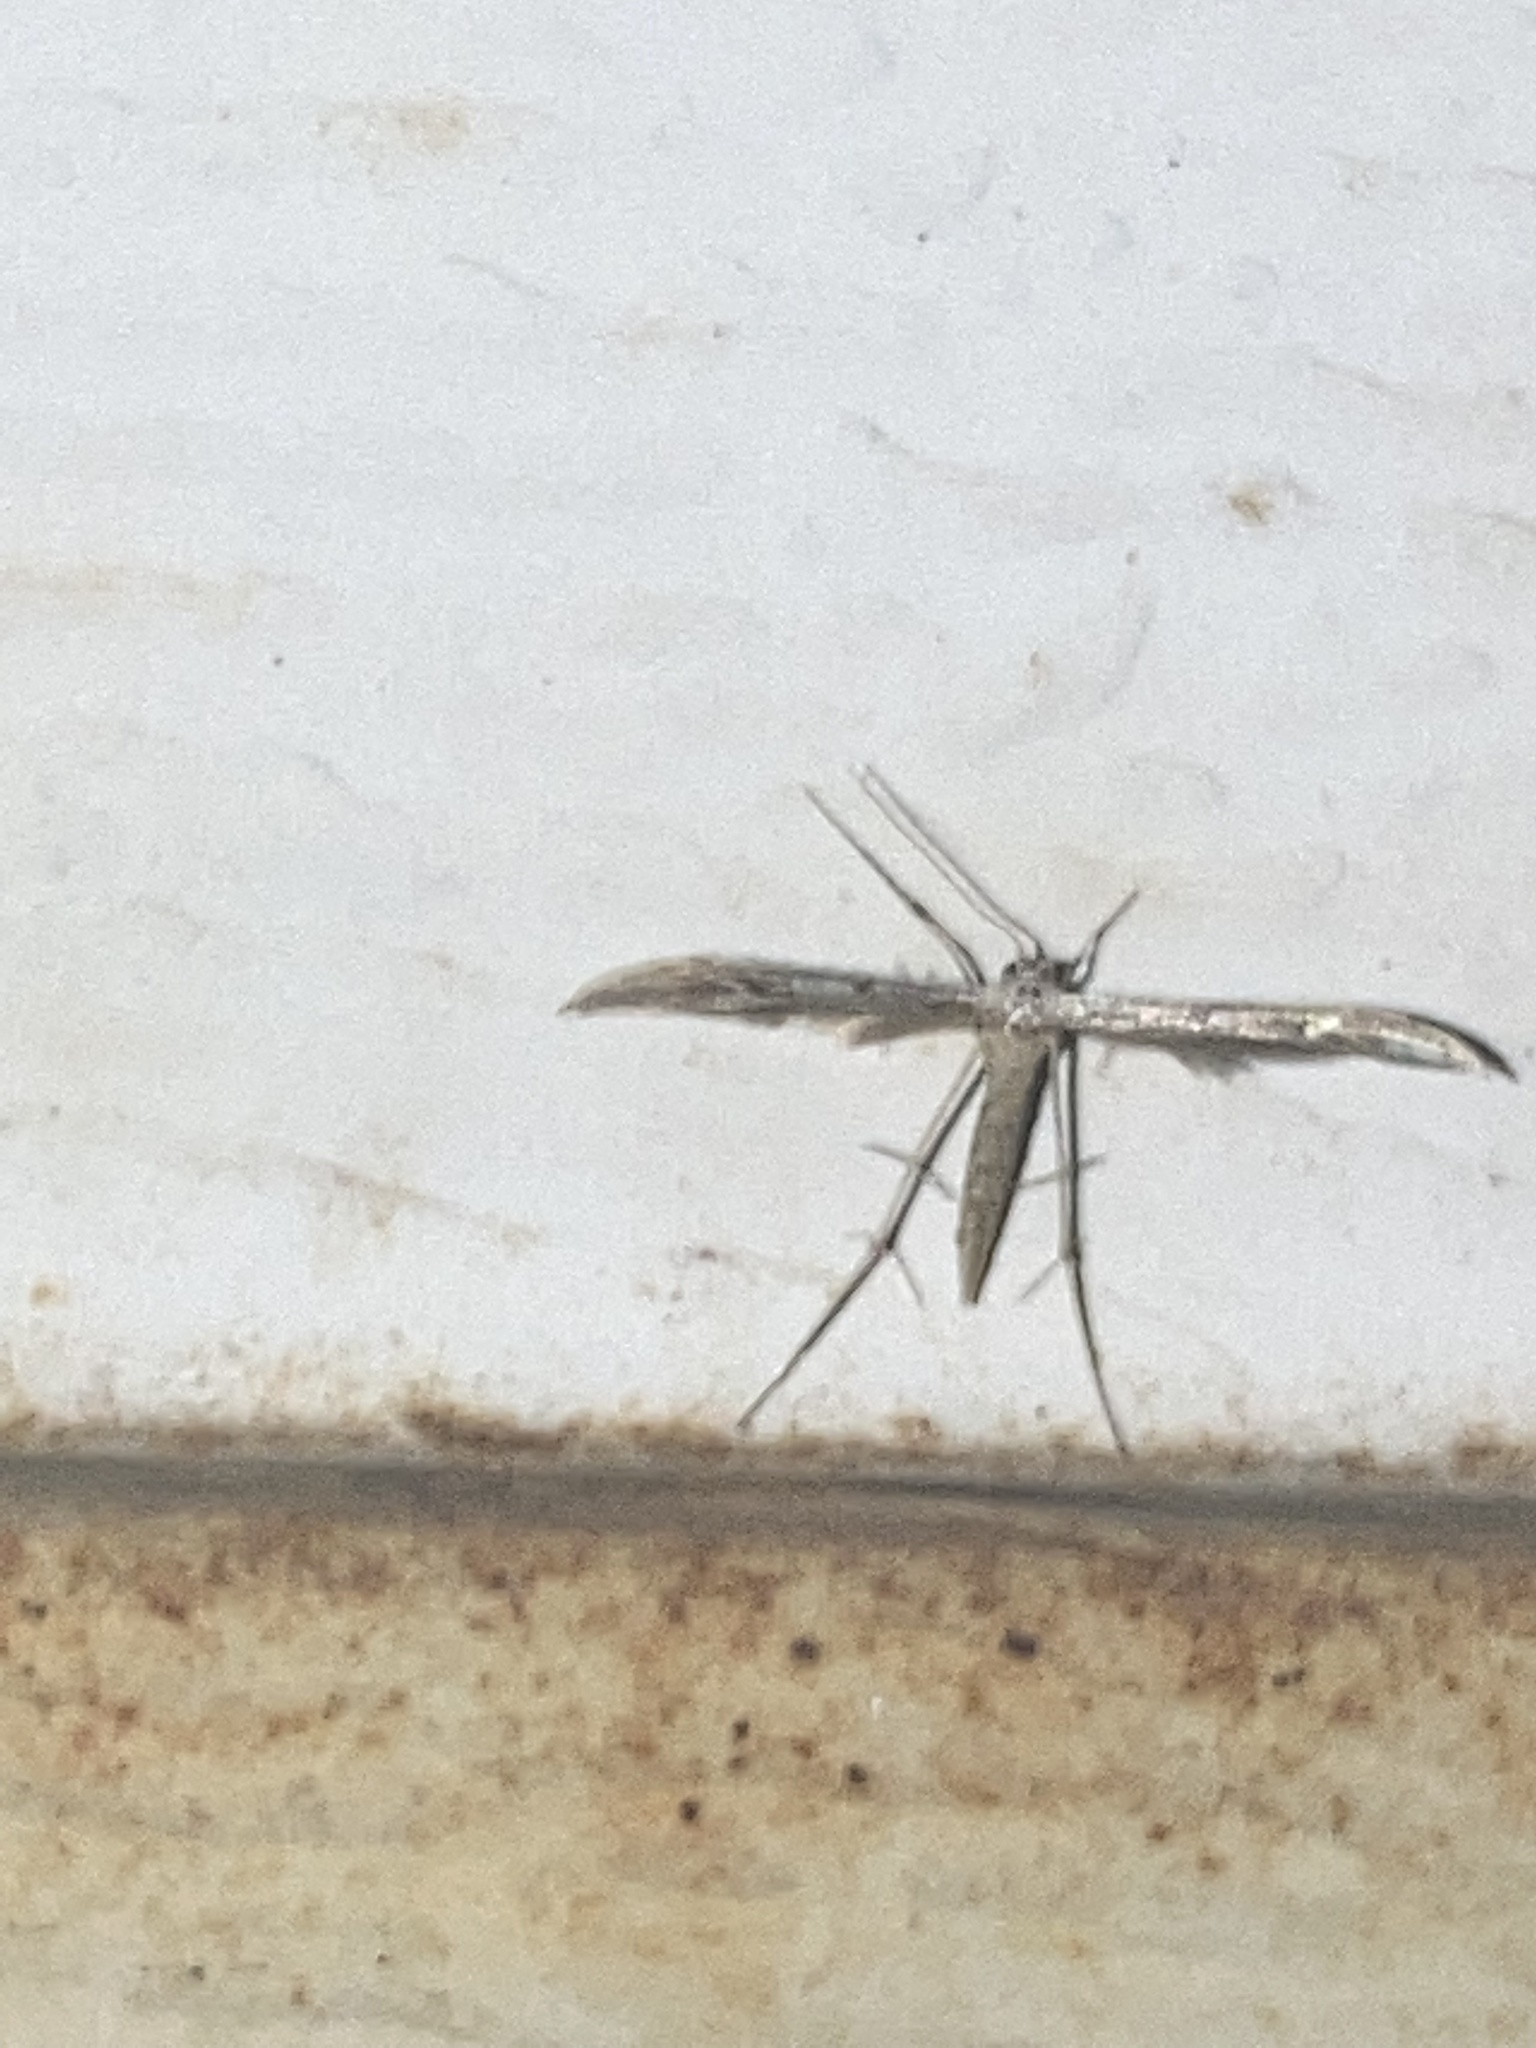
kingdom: Animalia
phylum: Arthropoda
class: Insecta
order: Lepidoptera
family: Pterophoridae
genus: Pselnophorus
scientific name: Pselnophorus belfragei
